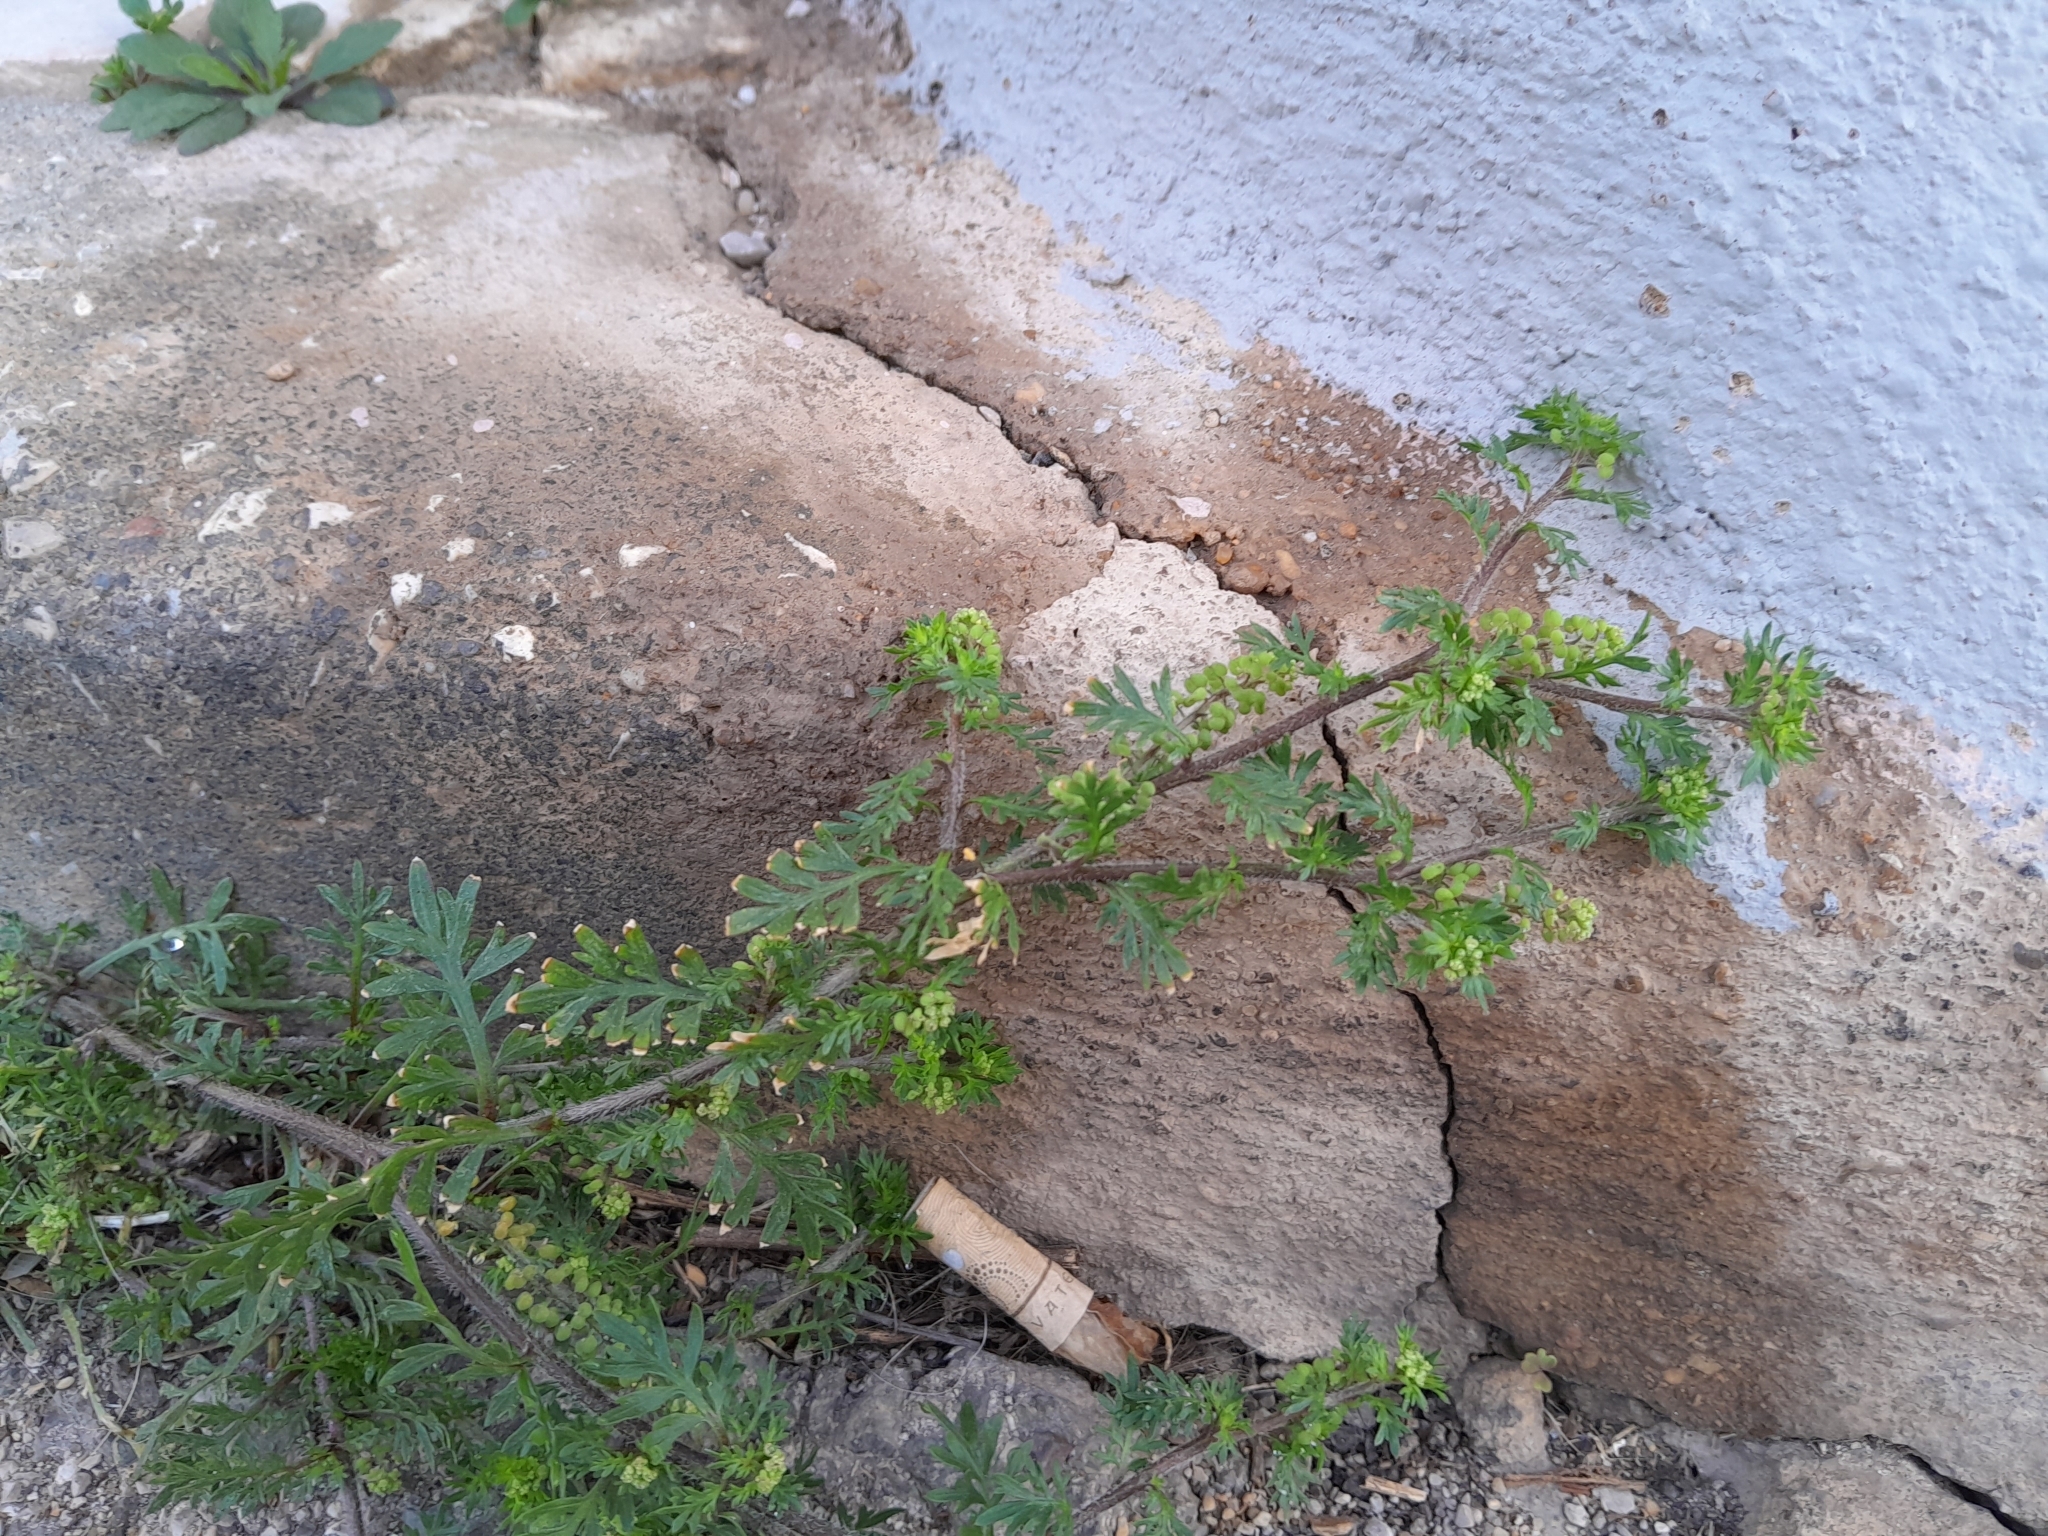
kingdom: Plantae
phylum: Tracheophyta
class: Magnoliopsida
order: Brassicales
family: Brassicaceae
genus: Lepidium
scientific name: Lepidium didymum
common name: Lesser swinecress
